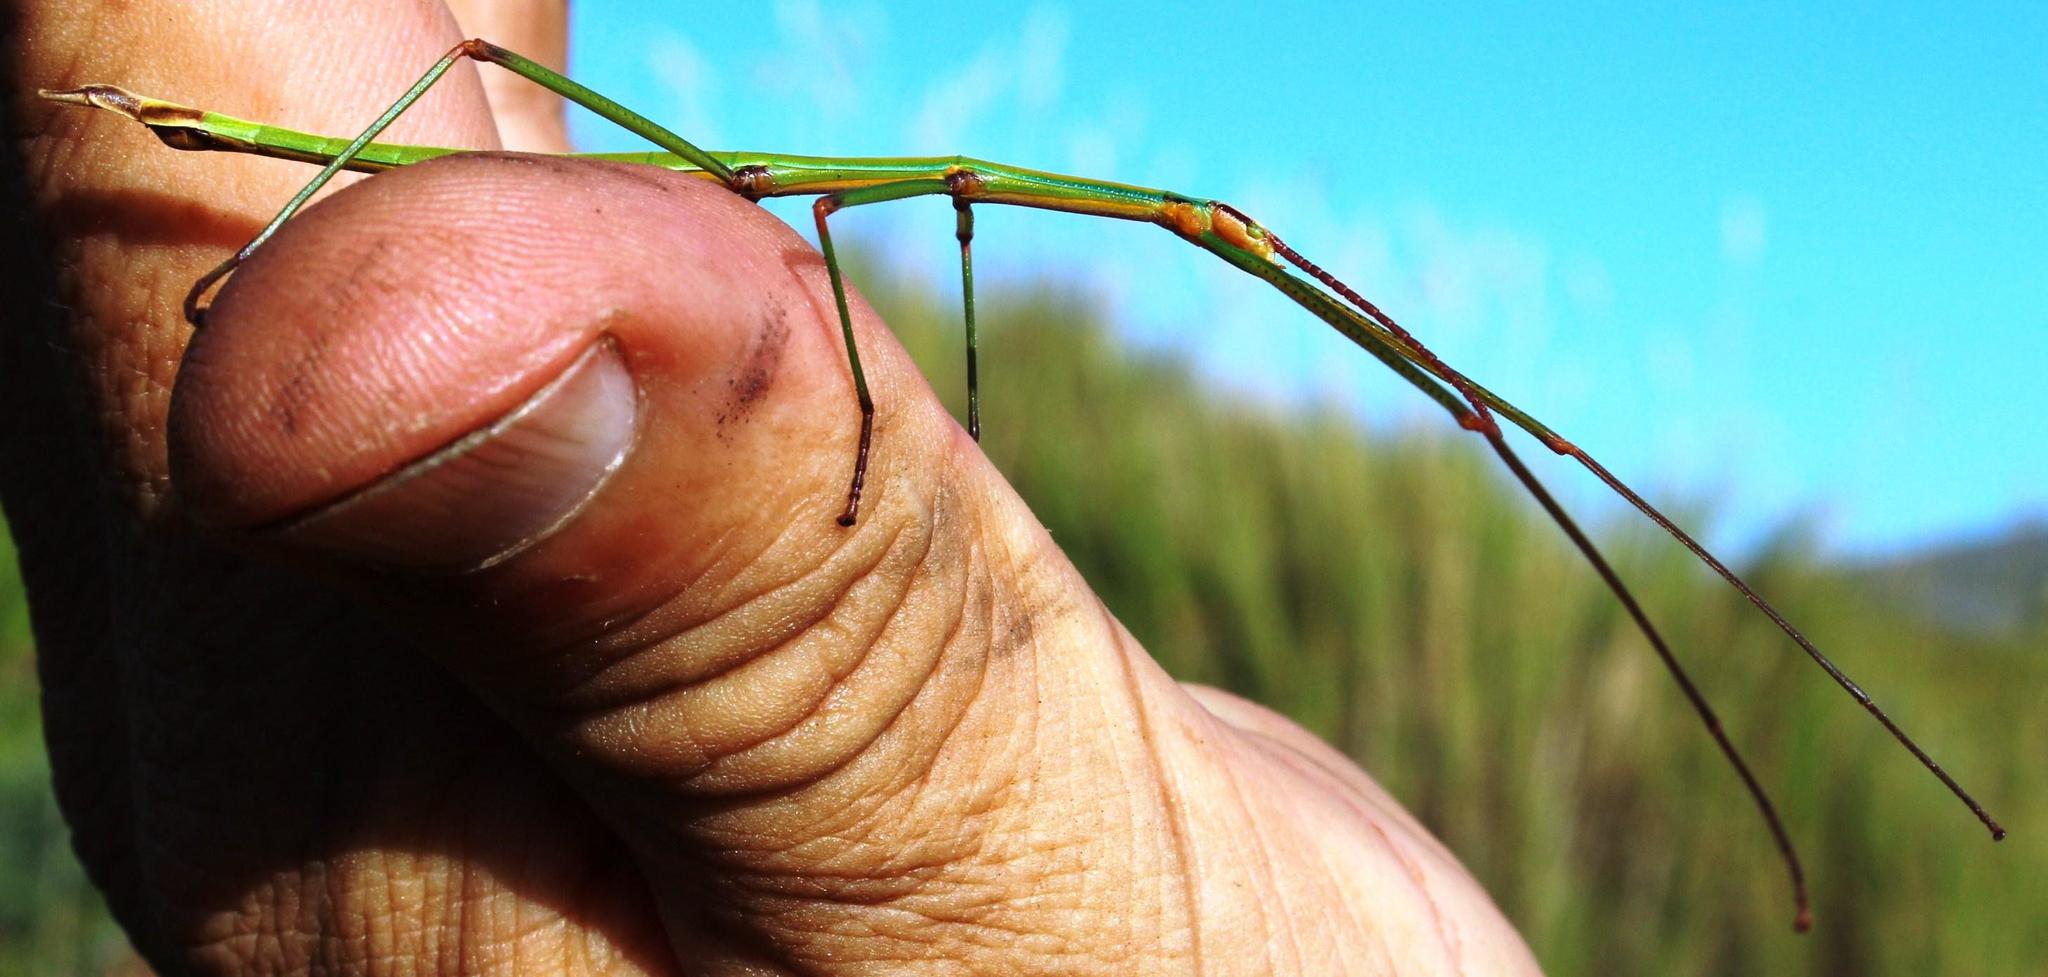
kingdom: Animalia
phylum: Arthropoda
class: Insecta
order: Phasmida
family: Bacillidae
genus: Macynia
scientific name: Macynia labiata
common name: Thunberg's stick insect
